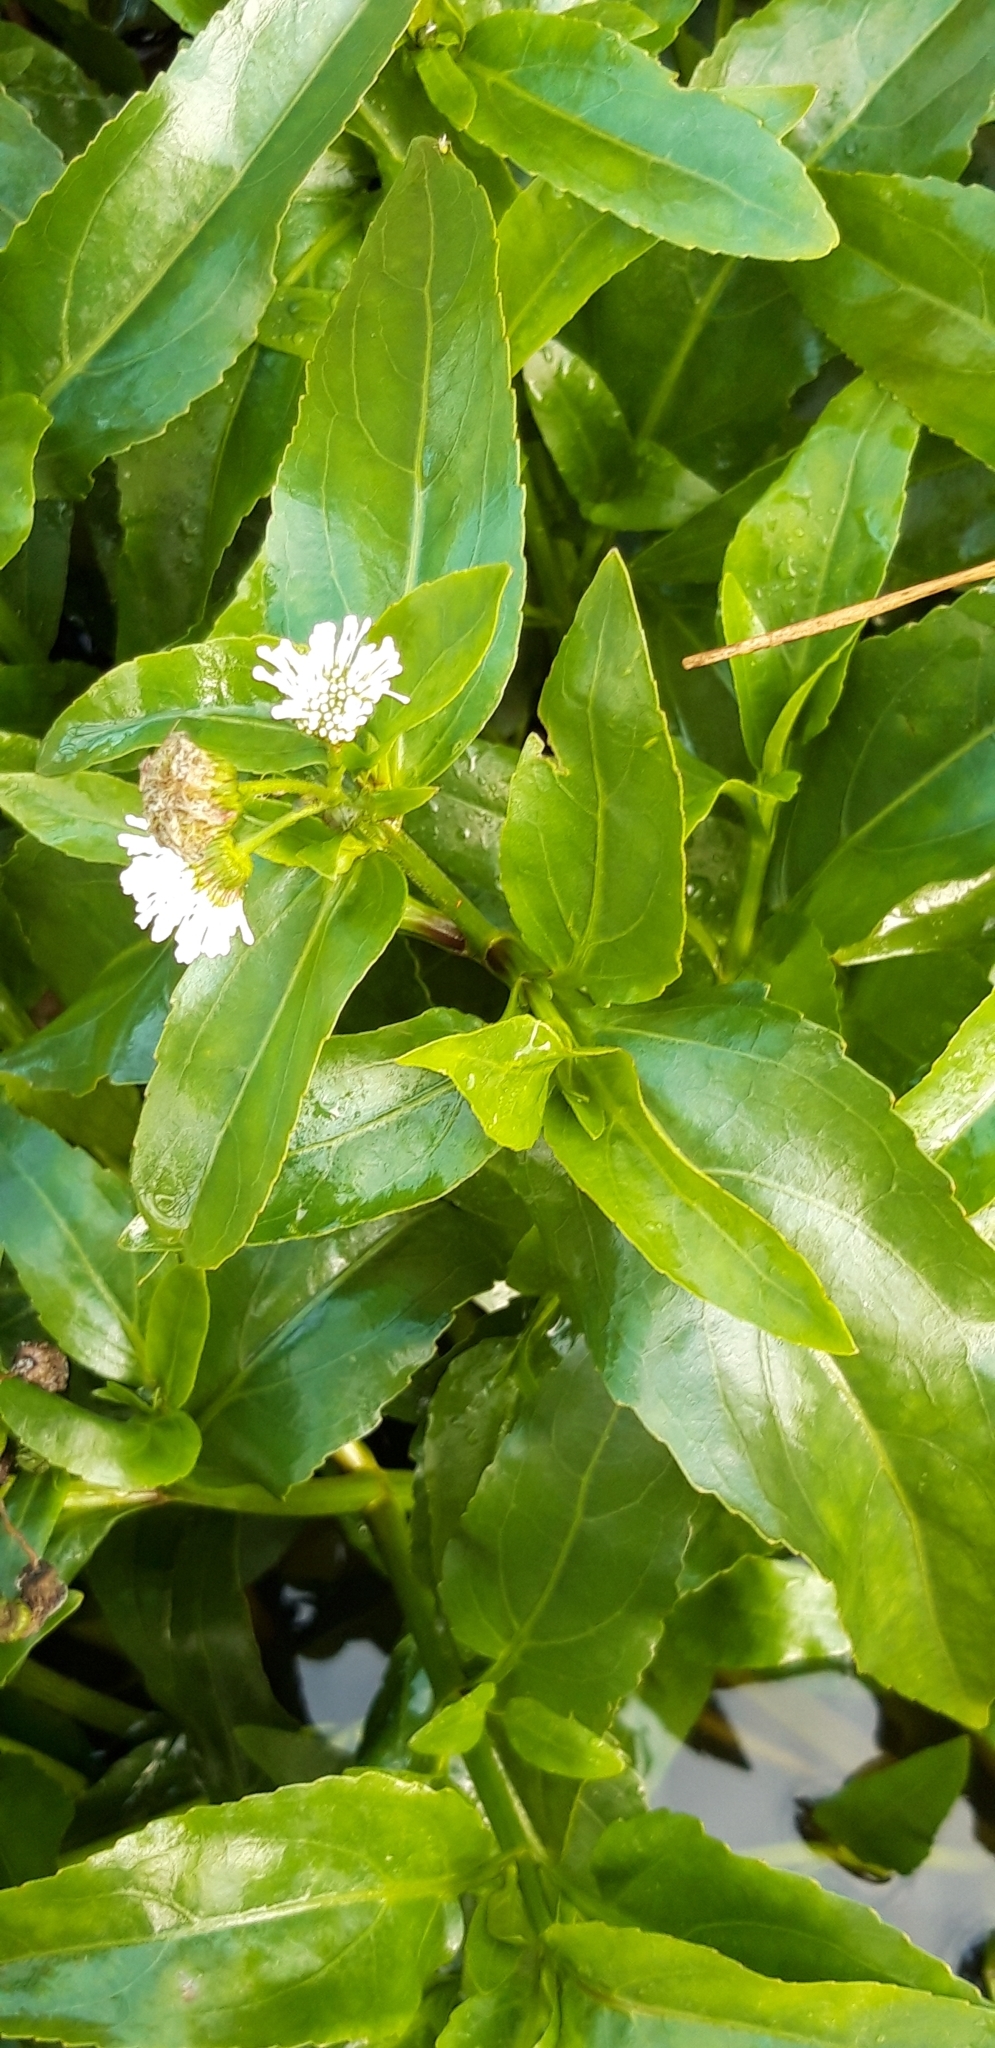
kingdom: Plantae
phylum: Tracheophyta
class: Magnoliopsida
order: Asterales
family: Asteraceae
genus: Gymnocoronis
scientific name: Gymnocoronis spilanthoides
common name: Senegal teaplant
